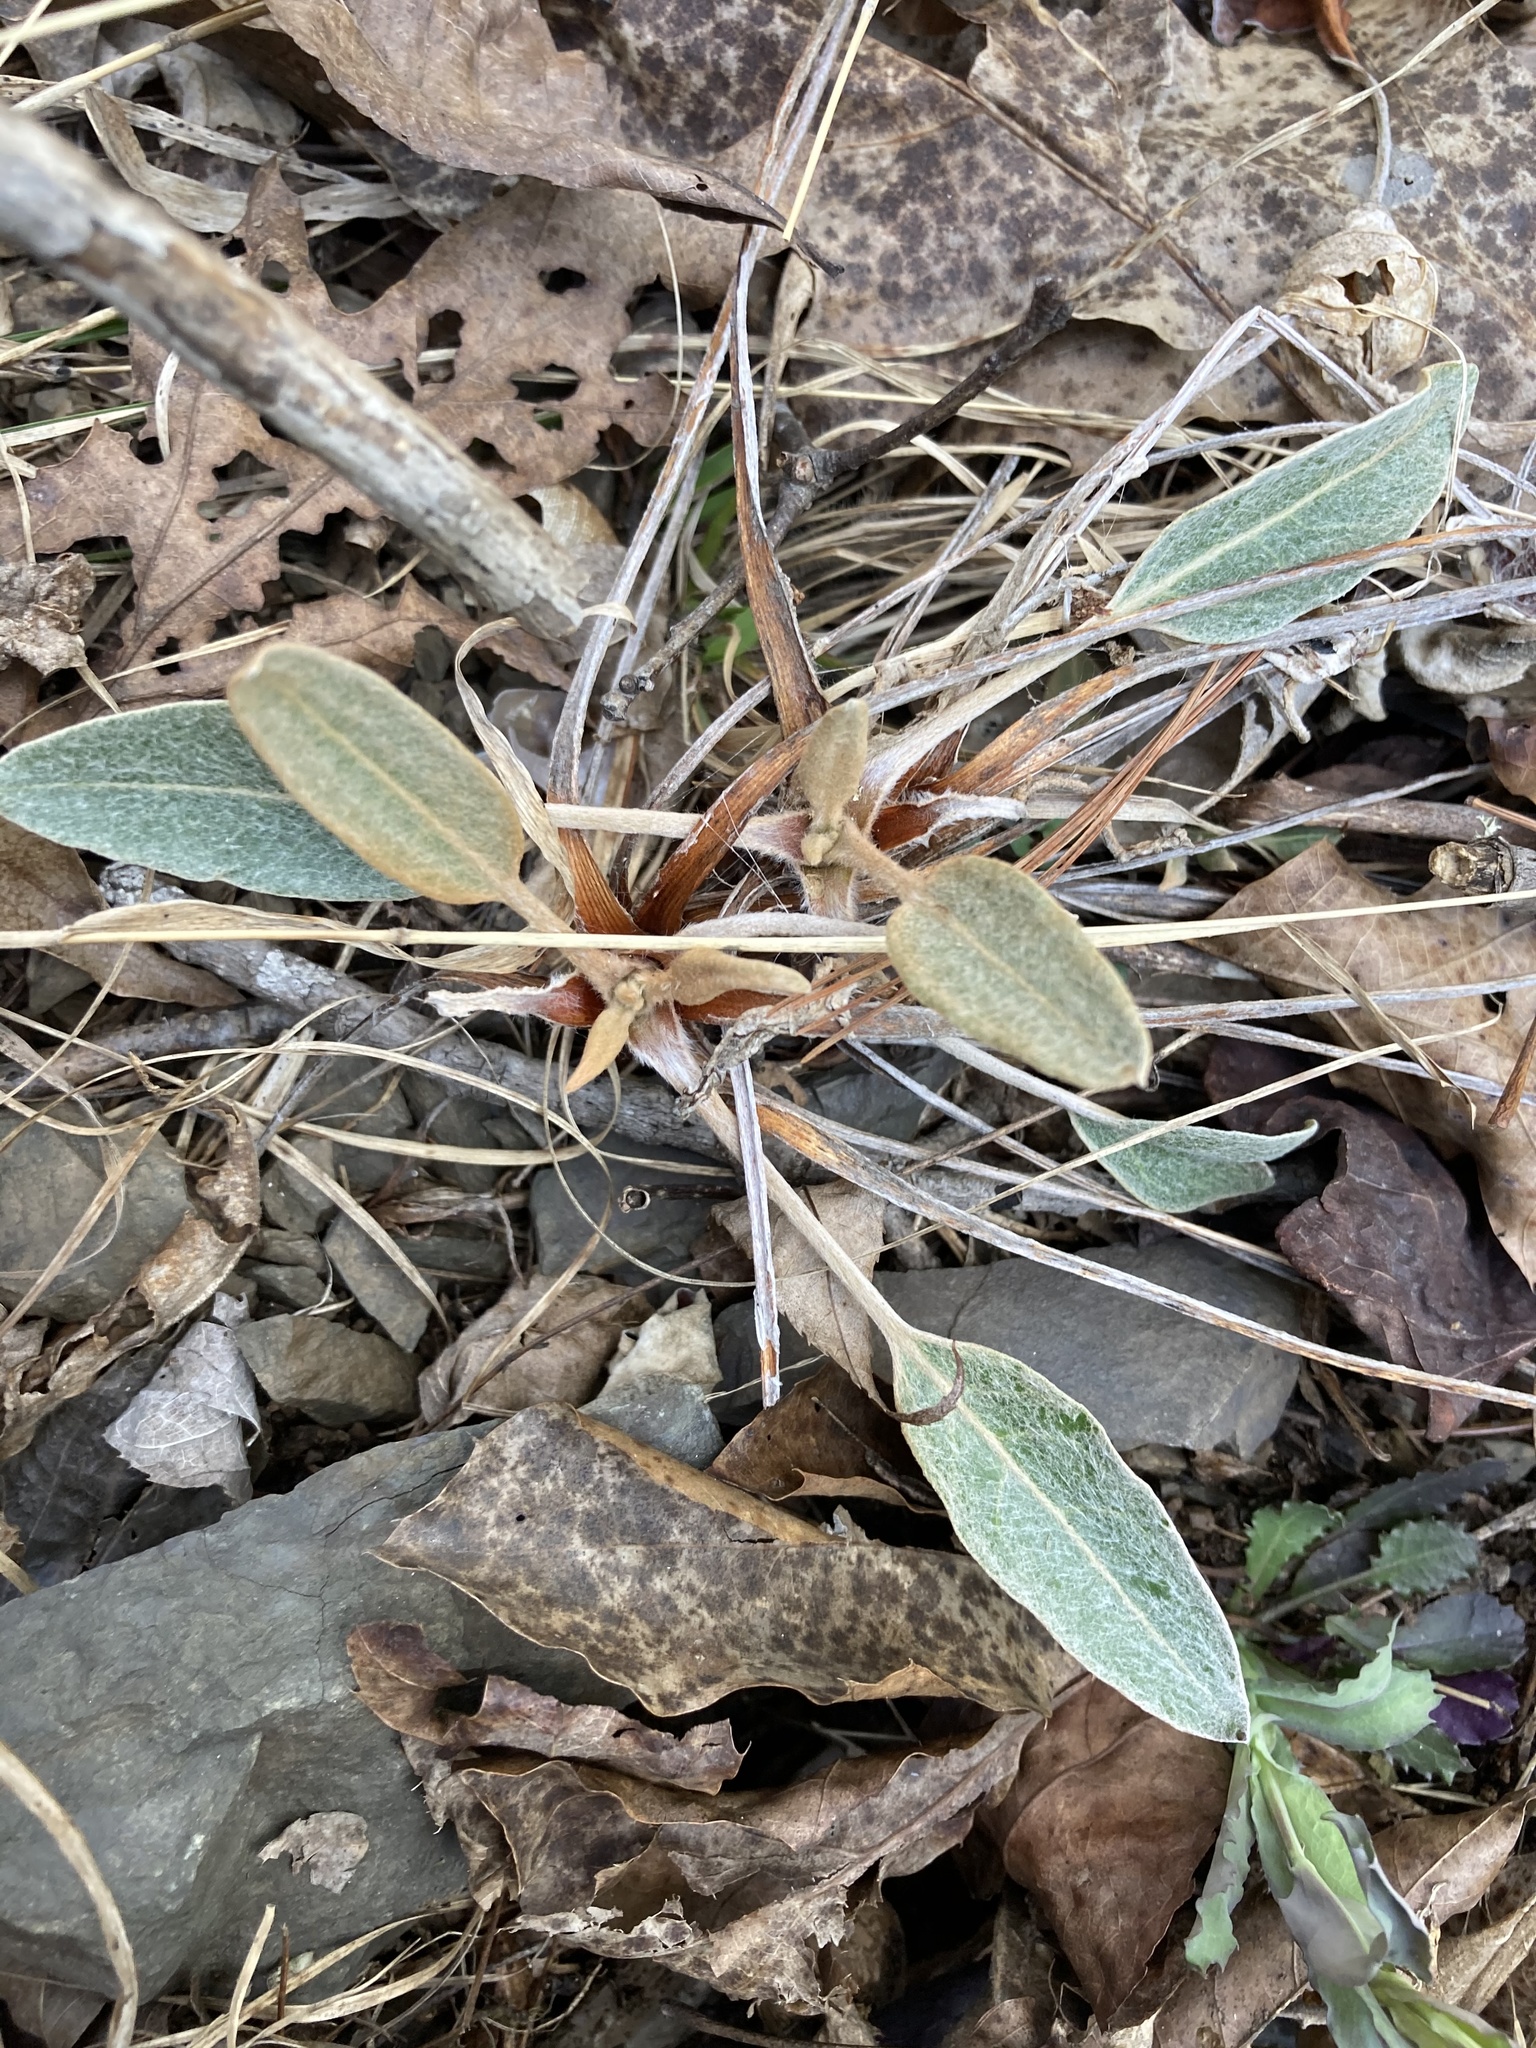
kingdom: Plantae
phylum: Tracheophyta
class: Magnoliopsida
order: Caryophyllales
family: Polygonaceae
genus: Eriogonum
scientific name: Eriogonum allenii
